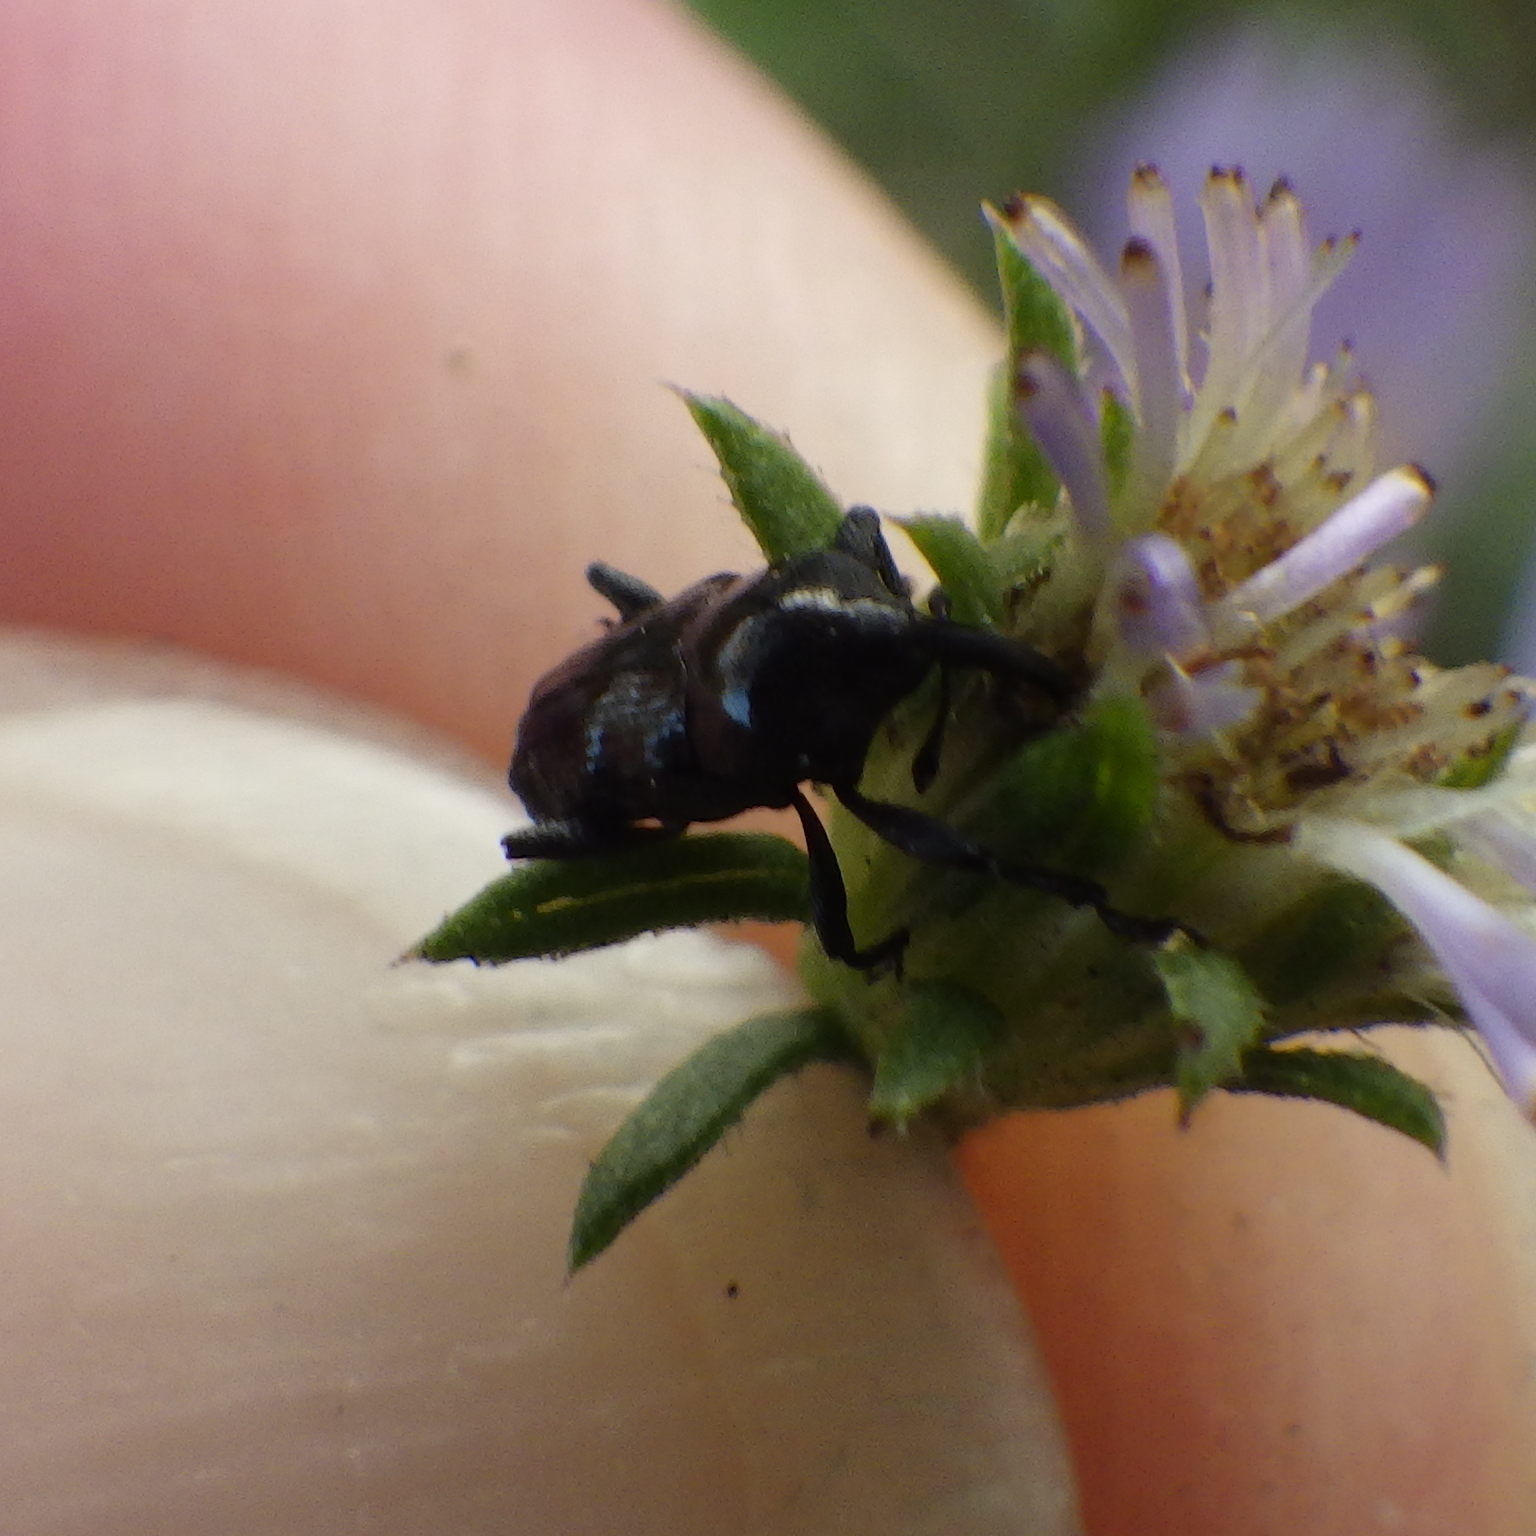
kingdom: Animalia
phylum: Arthropoda
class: Insecta
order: Coleoptera
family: Curculionidae
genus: Madarellus
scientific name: Madarellus undulatus
